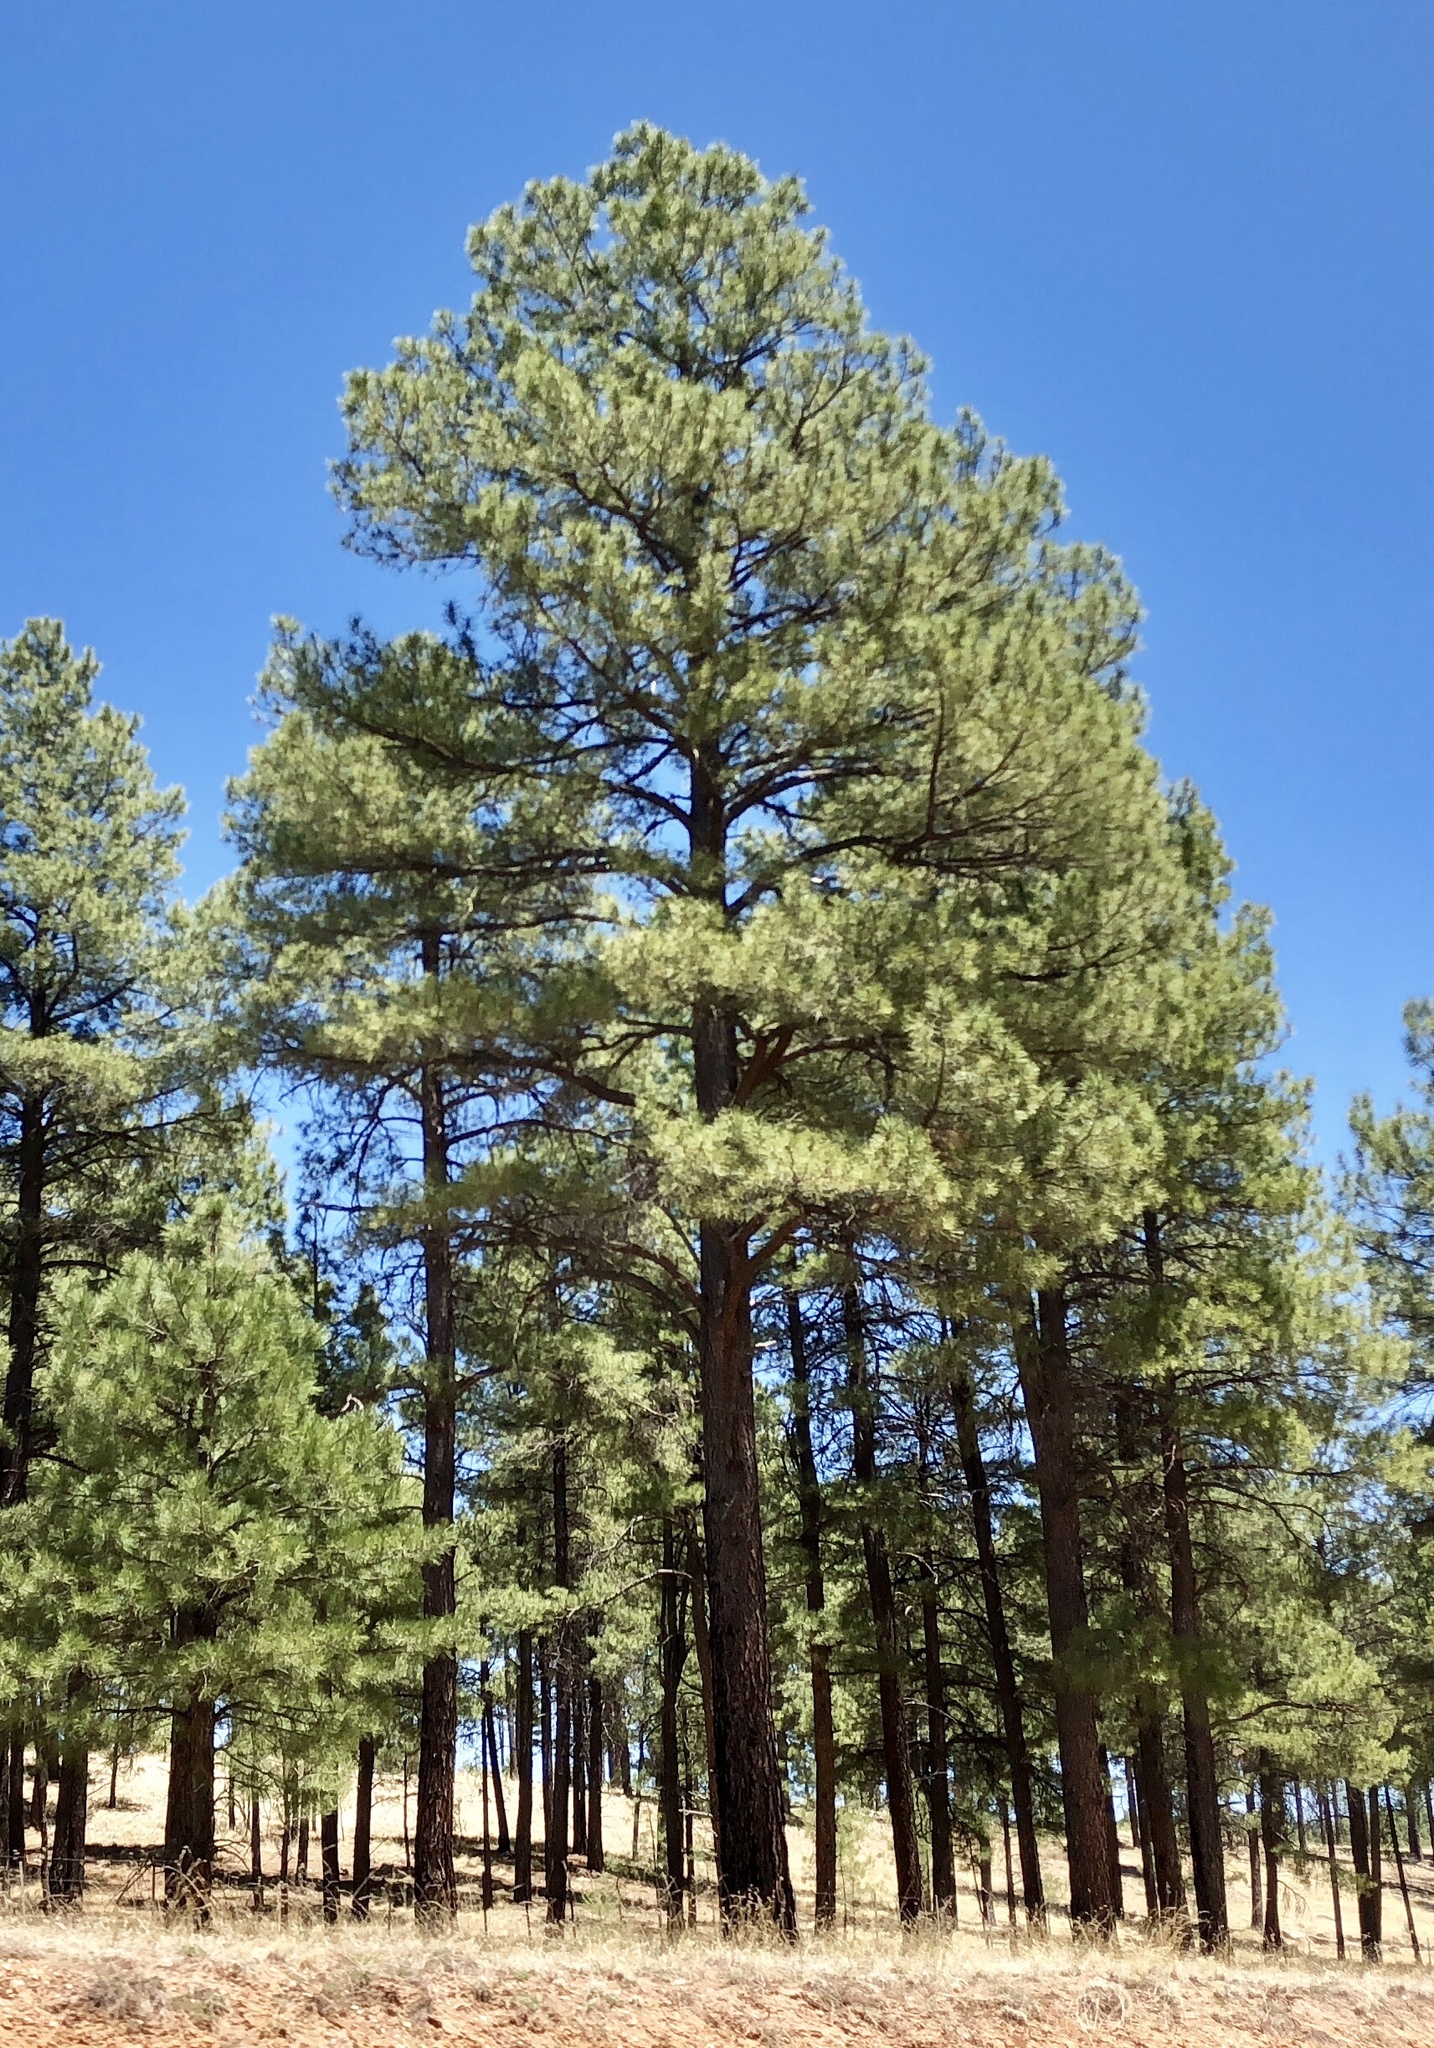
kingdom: Plantae
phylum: Tracheophyta
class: Pinopsida
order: Pinales
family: Pinaceae
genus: Pinus
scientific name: Pinus ponderosa
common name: Western yellow-pine
